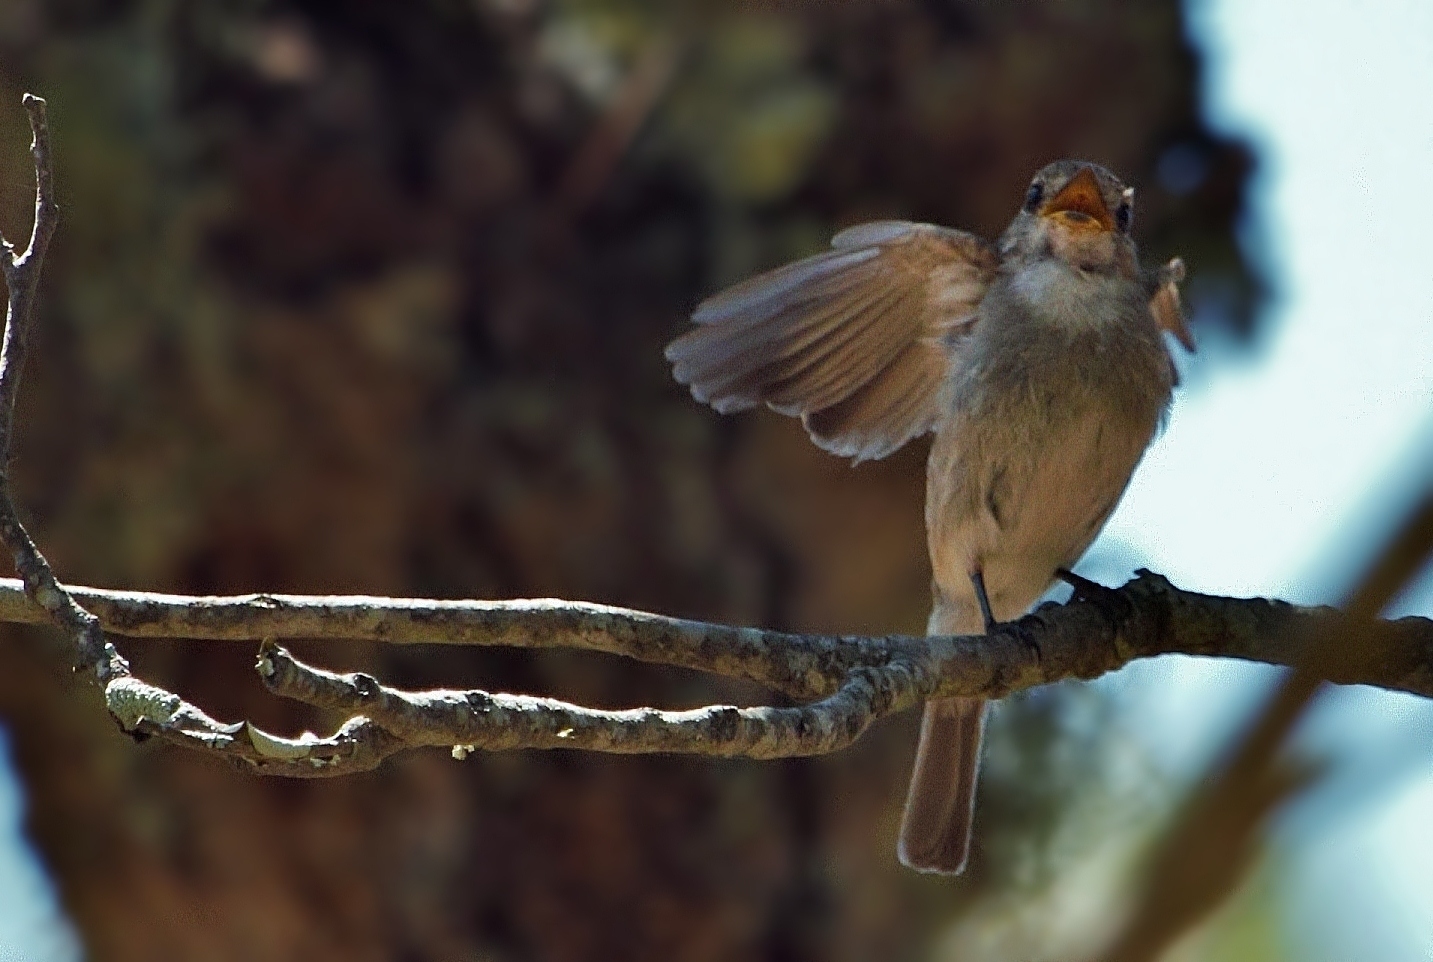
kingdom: Animalia
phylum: Chordata
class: Aves
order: Passeriformes
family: Muscicapidae
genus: Muscicapa
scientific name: Muscicapa adusta
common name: African dusky flycatcher
